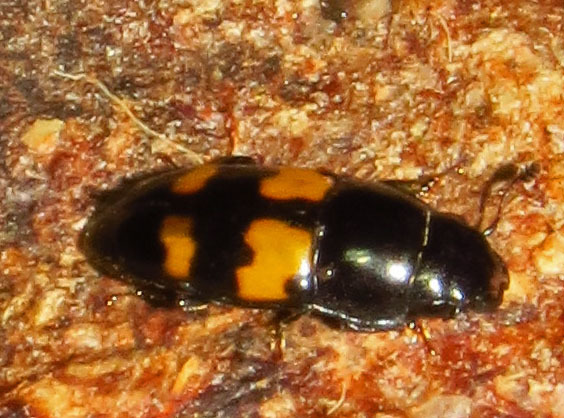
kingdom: Animalia
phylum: Arthropoda
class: Insecta
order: Coleoptera
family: Nitidulidae
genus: Glischrochilus
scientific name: Glischrochilus fasciatus
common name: Picnic beetle
